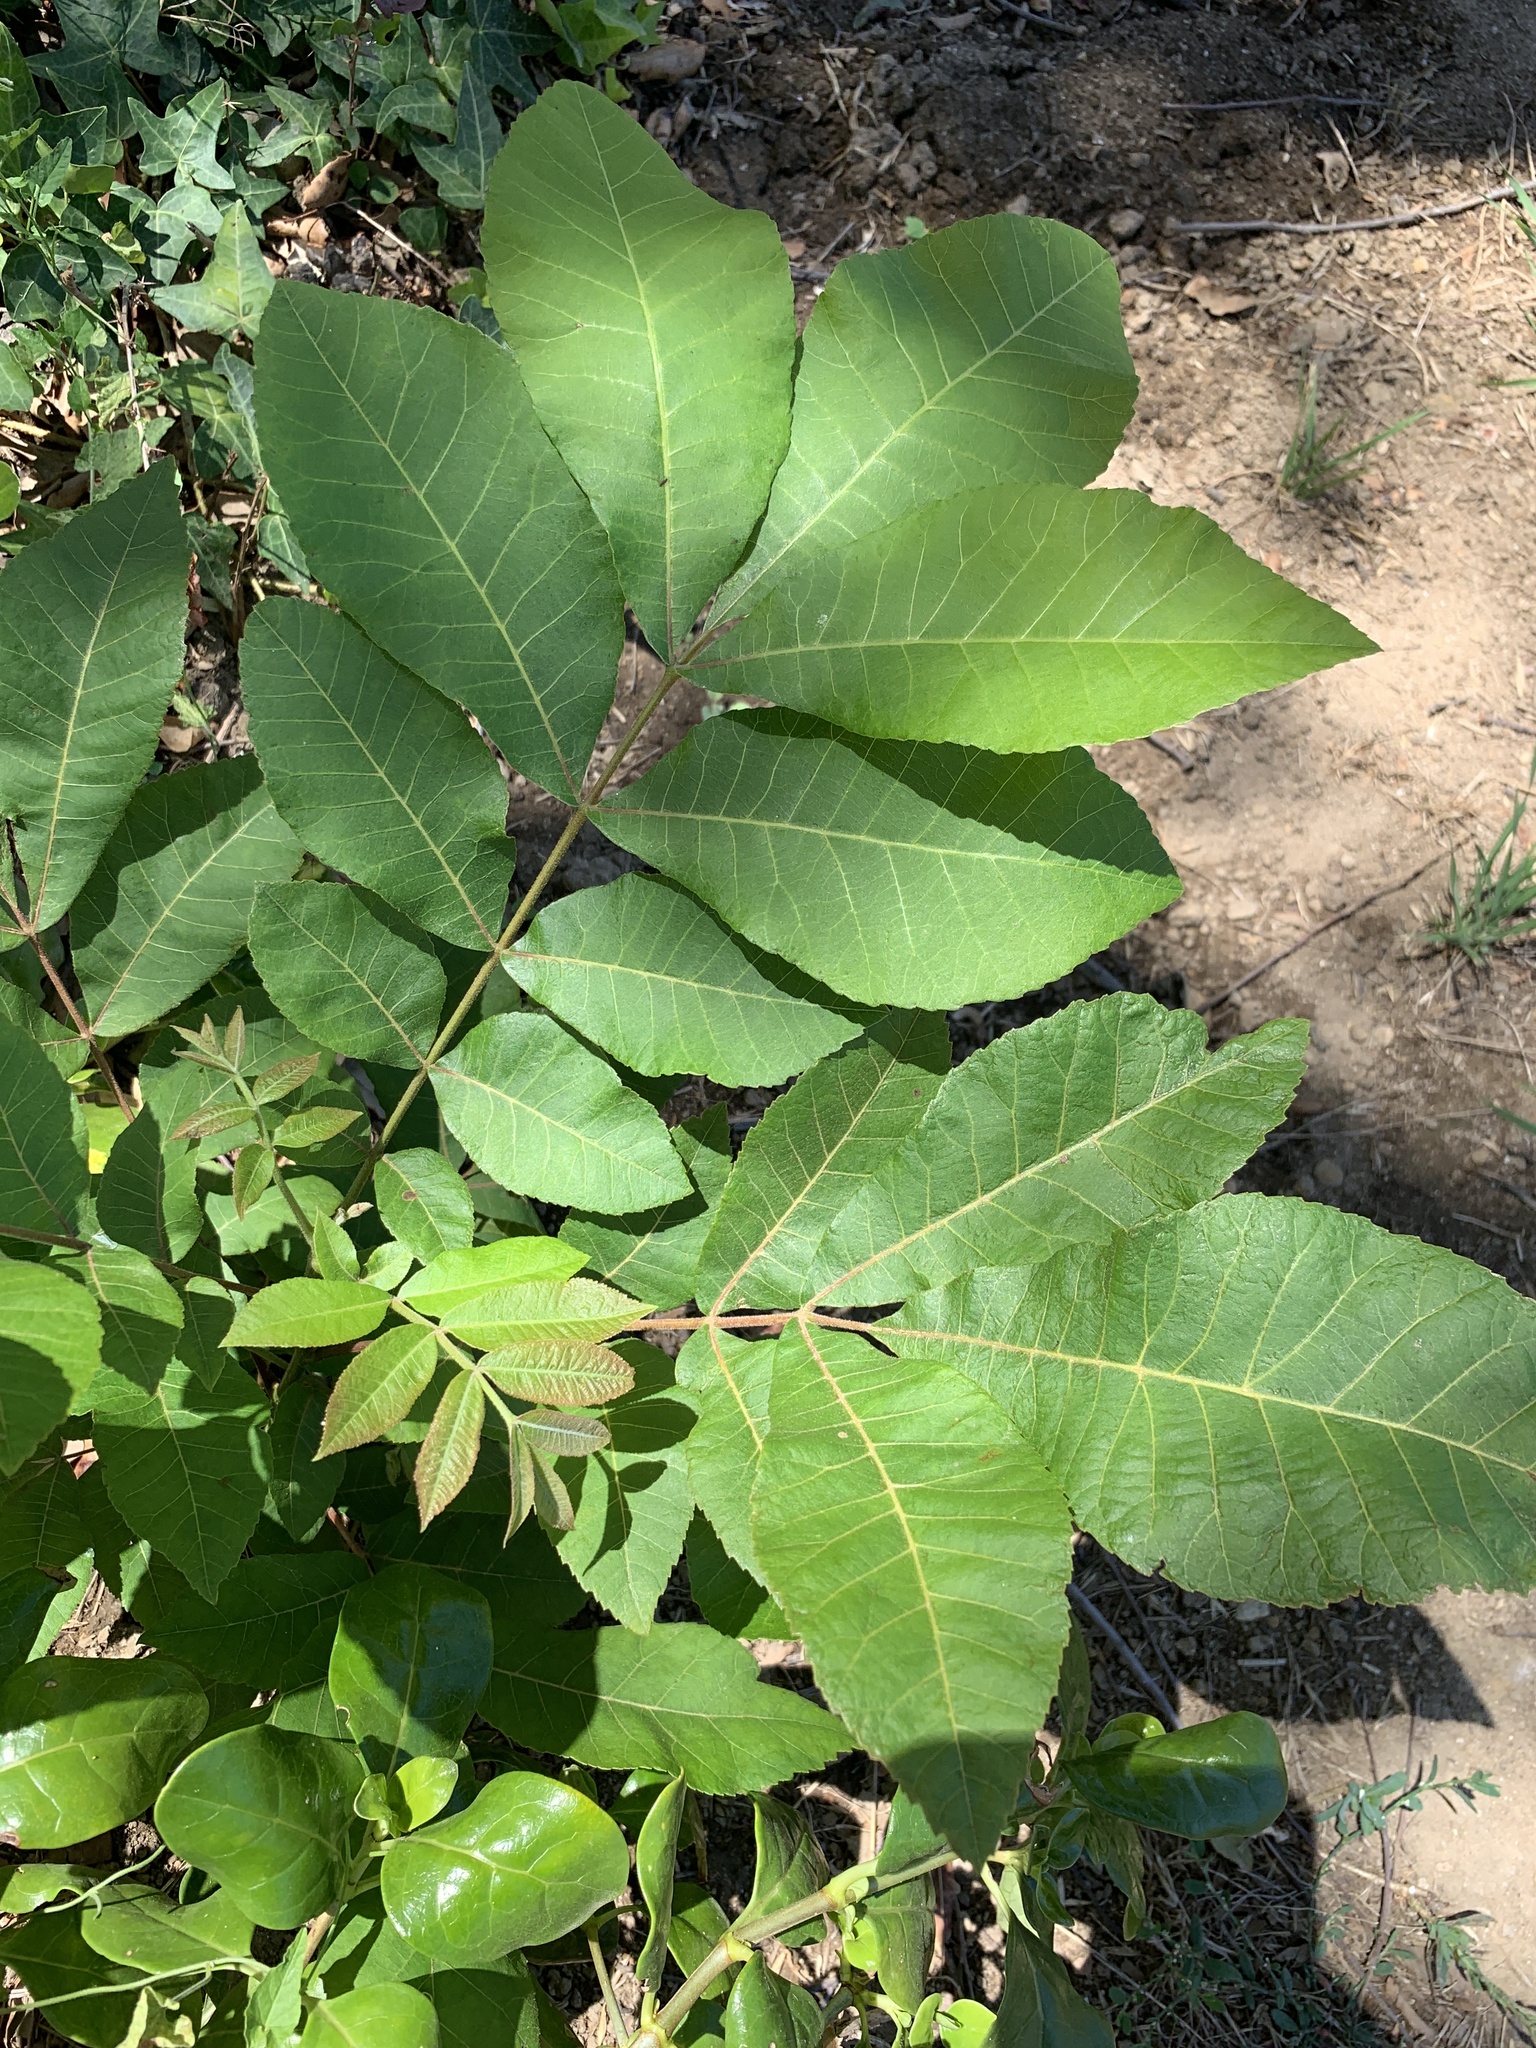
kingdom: Plantae
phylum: Tracheophyta
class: Magnoliopsida
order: Fagales
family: Juglandaceae
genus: Carya
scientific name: Carya illinoinensis
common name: Pecan
